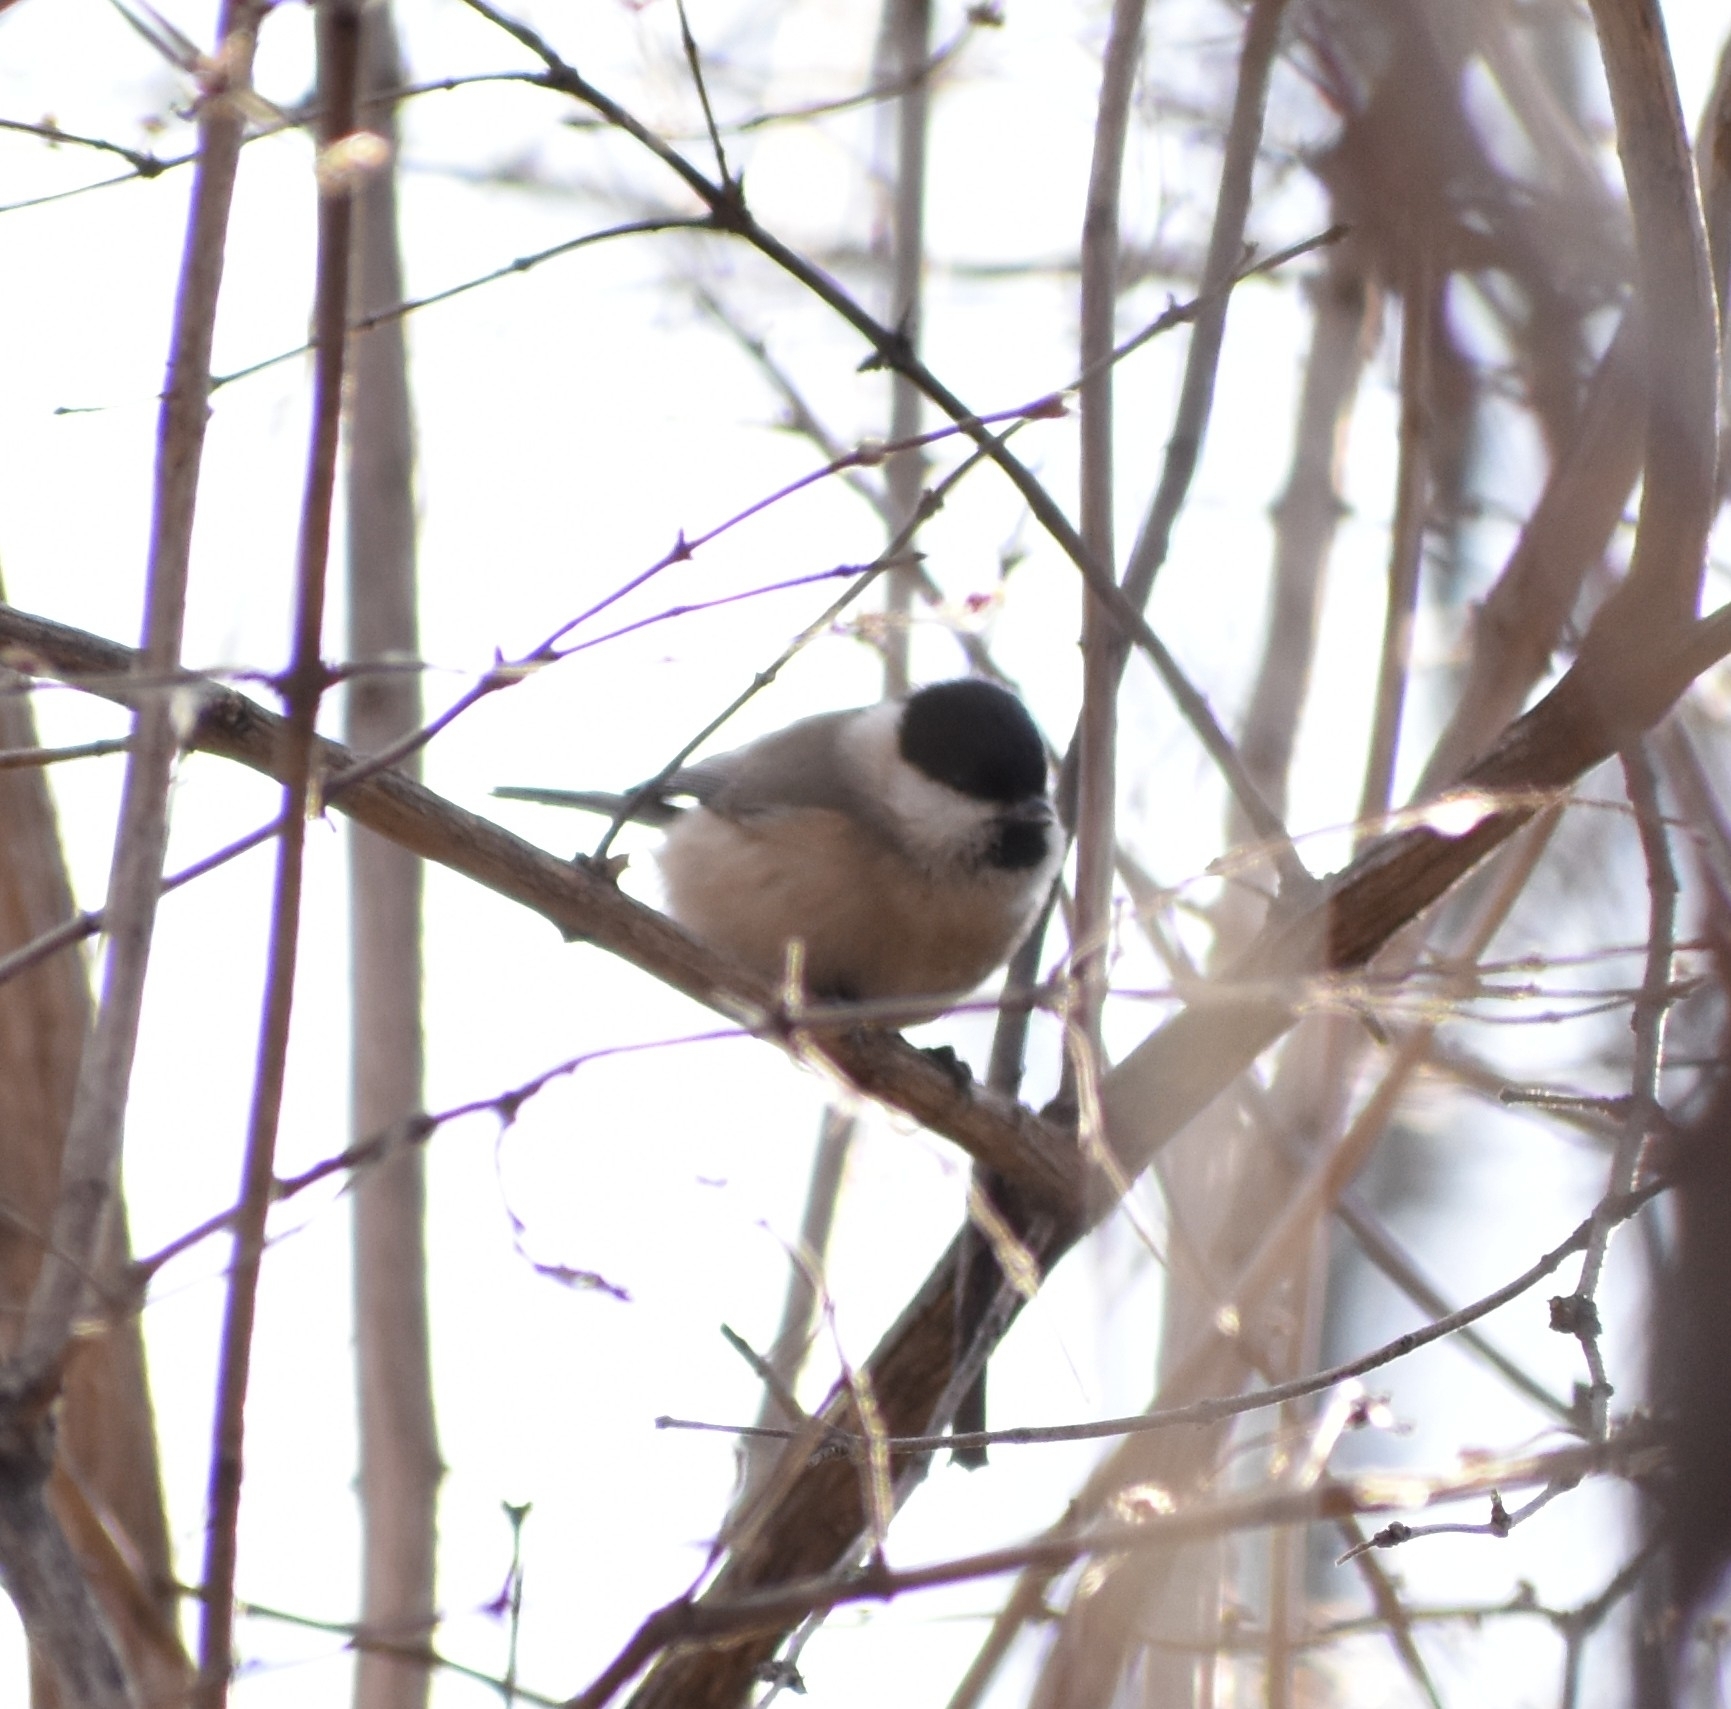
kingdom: Animalia
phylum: Chordata
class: Aves
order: Passeriformes
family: Paridae
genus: Poecile
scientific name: Poecile palustris
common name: Marsh tit
